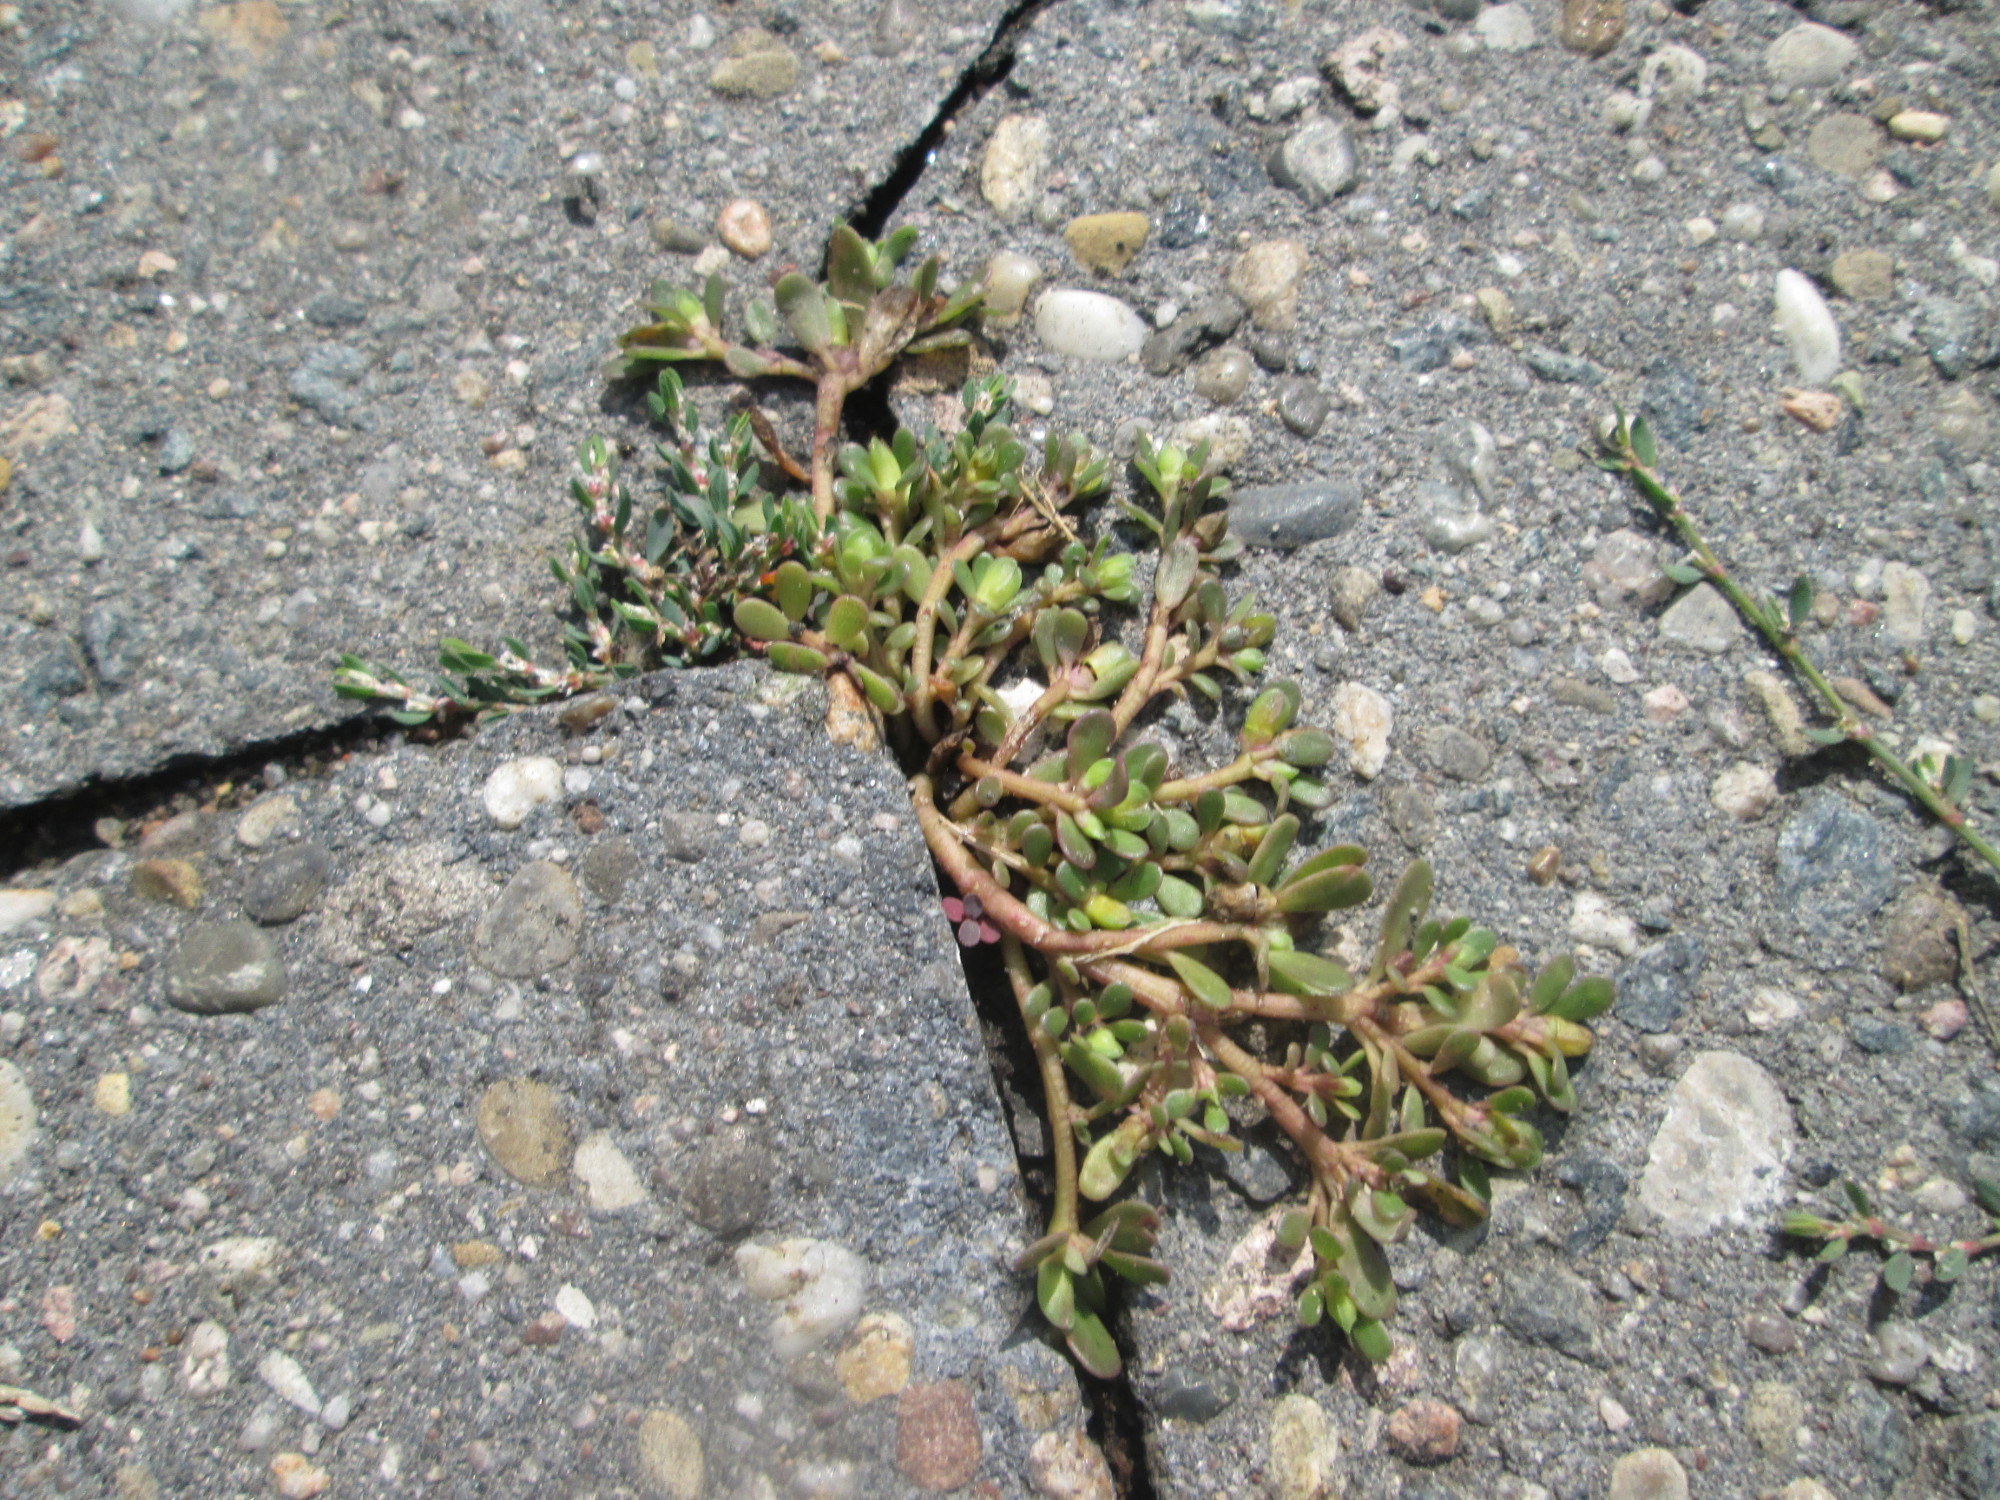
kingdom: Plantae
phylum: Tracheophyta
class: Magnoliopsida
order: Caryophyllales
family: Portulacaceae
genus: Portulaca
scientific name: Portulaca oleracea
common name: Common purslane
